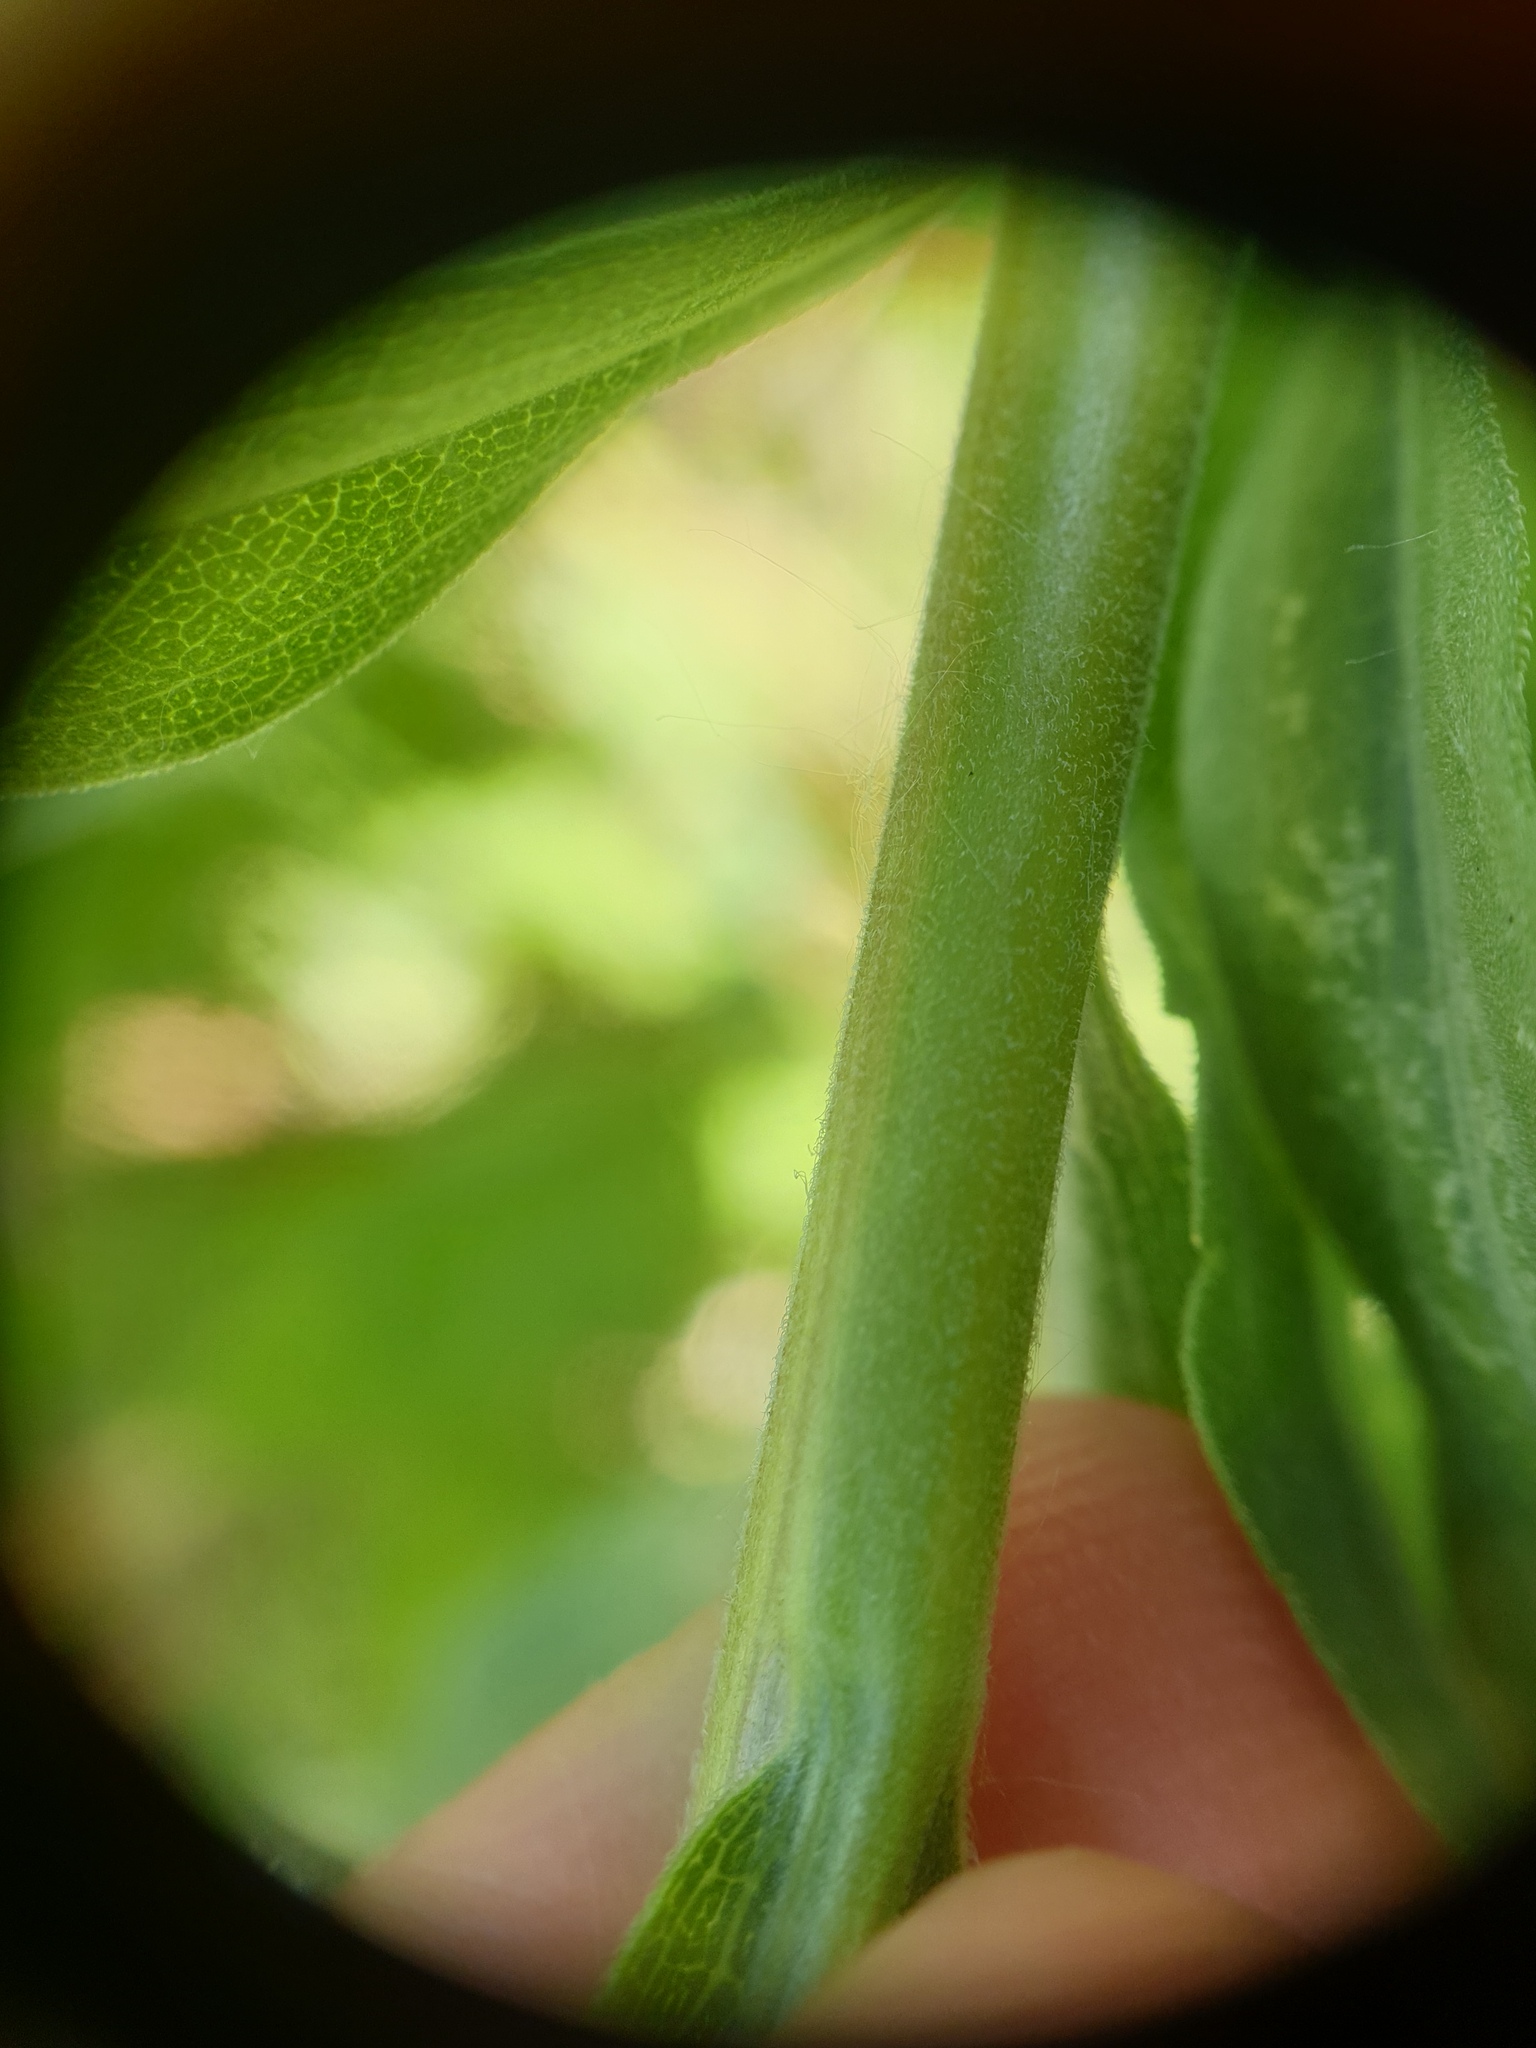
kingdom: Plantae
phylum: Tracheophyta
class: Magnoliopsida
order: Asterales
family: Asteraceae
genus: Solidago
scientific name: Solidago altissima
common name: Late goldenrod
